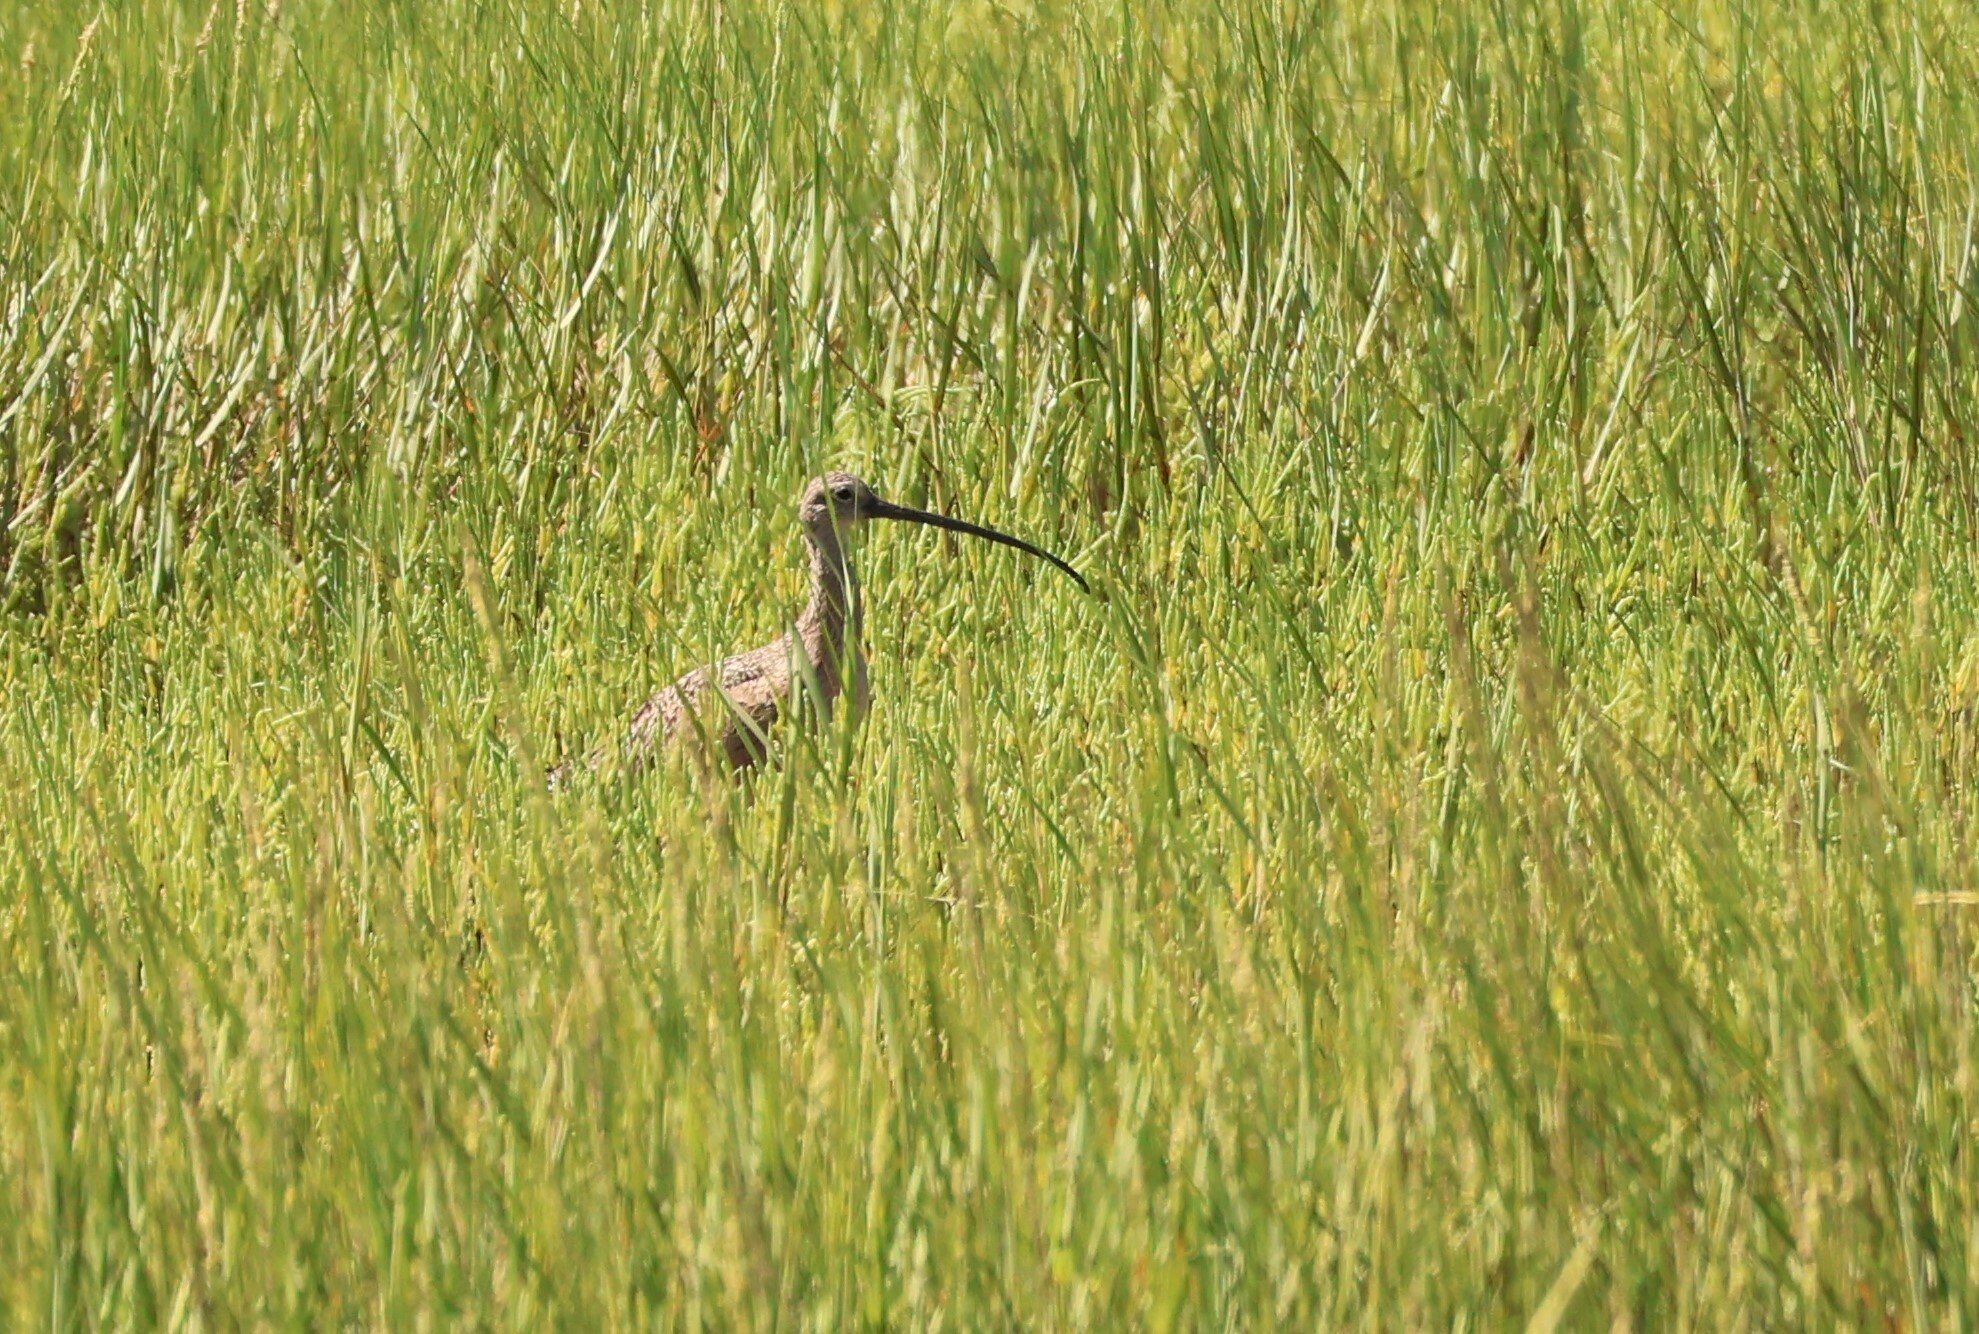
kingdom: Animalia
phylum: Chordata
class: Aves
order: Charadriiformes
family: Scolopacidae
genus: Numenius
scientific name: Numenius americanus
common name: Long-billed curlew
